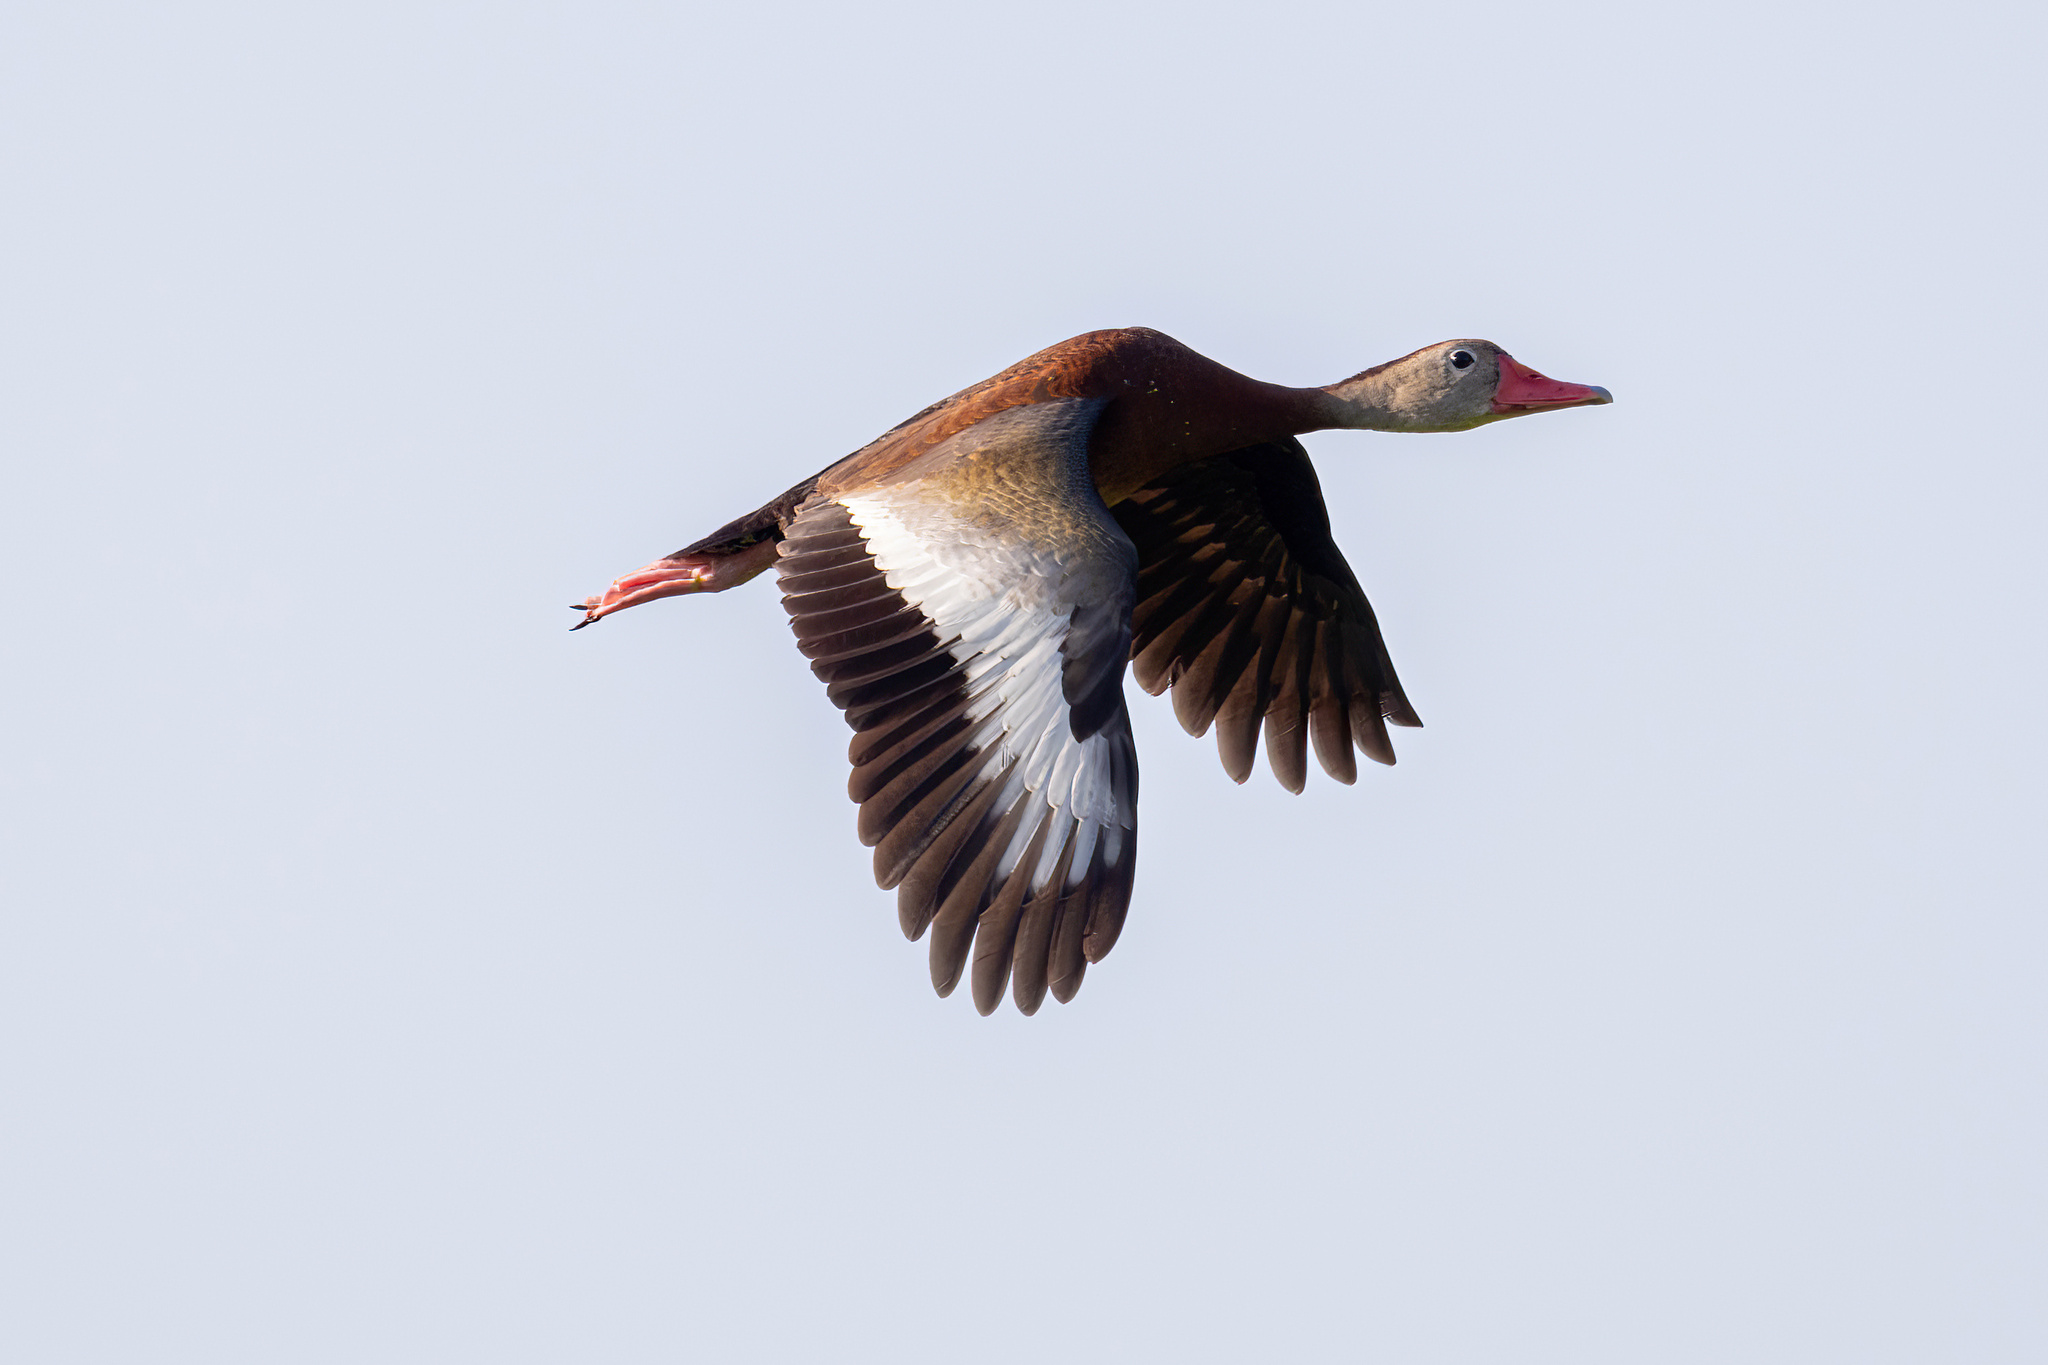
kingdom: Animalia
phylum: Chordata
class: Aves
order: Anseriformes
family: Anatidae
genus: Dendrocygna
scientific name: Dendrocygna autumnalis
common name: Black-bellied whistling duck
